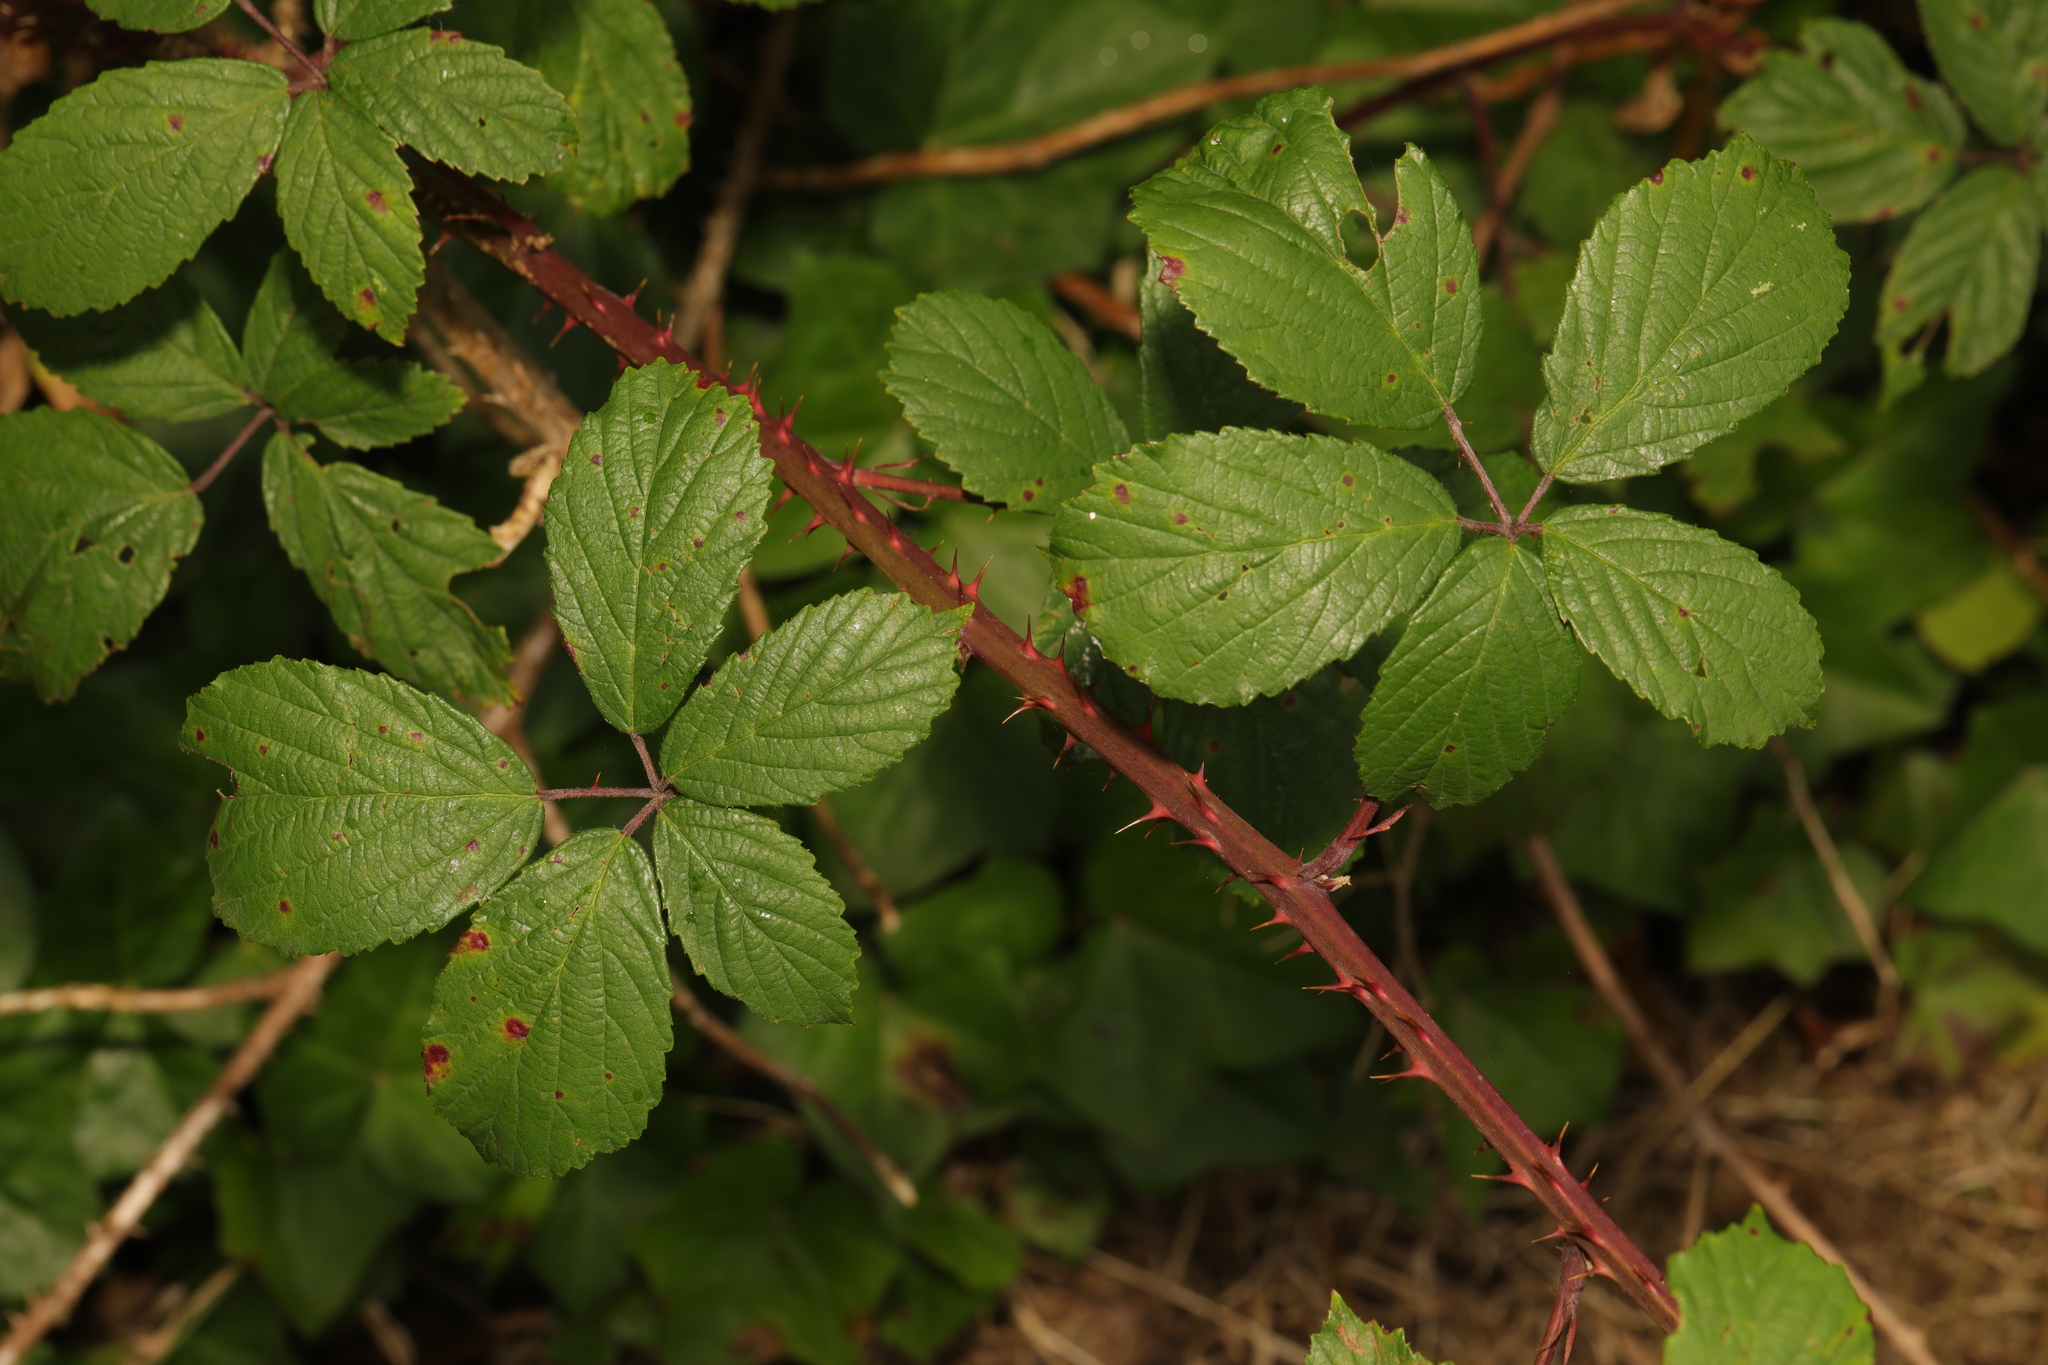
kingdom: Plantae
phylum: Tracheophyta
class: Magnoliopsida
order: Rosales
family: Rosaceae
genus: Rubus
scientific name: Rubus fruticosus
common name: Blackberry, bramble
